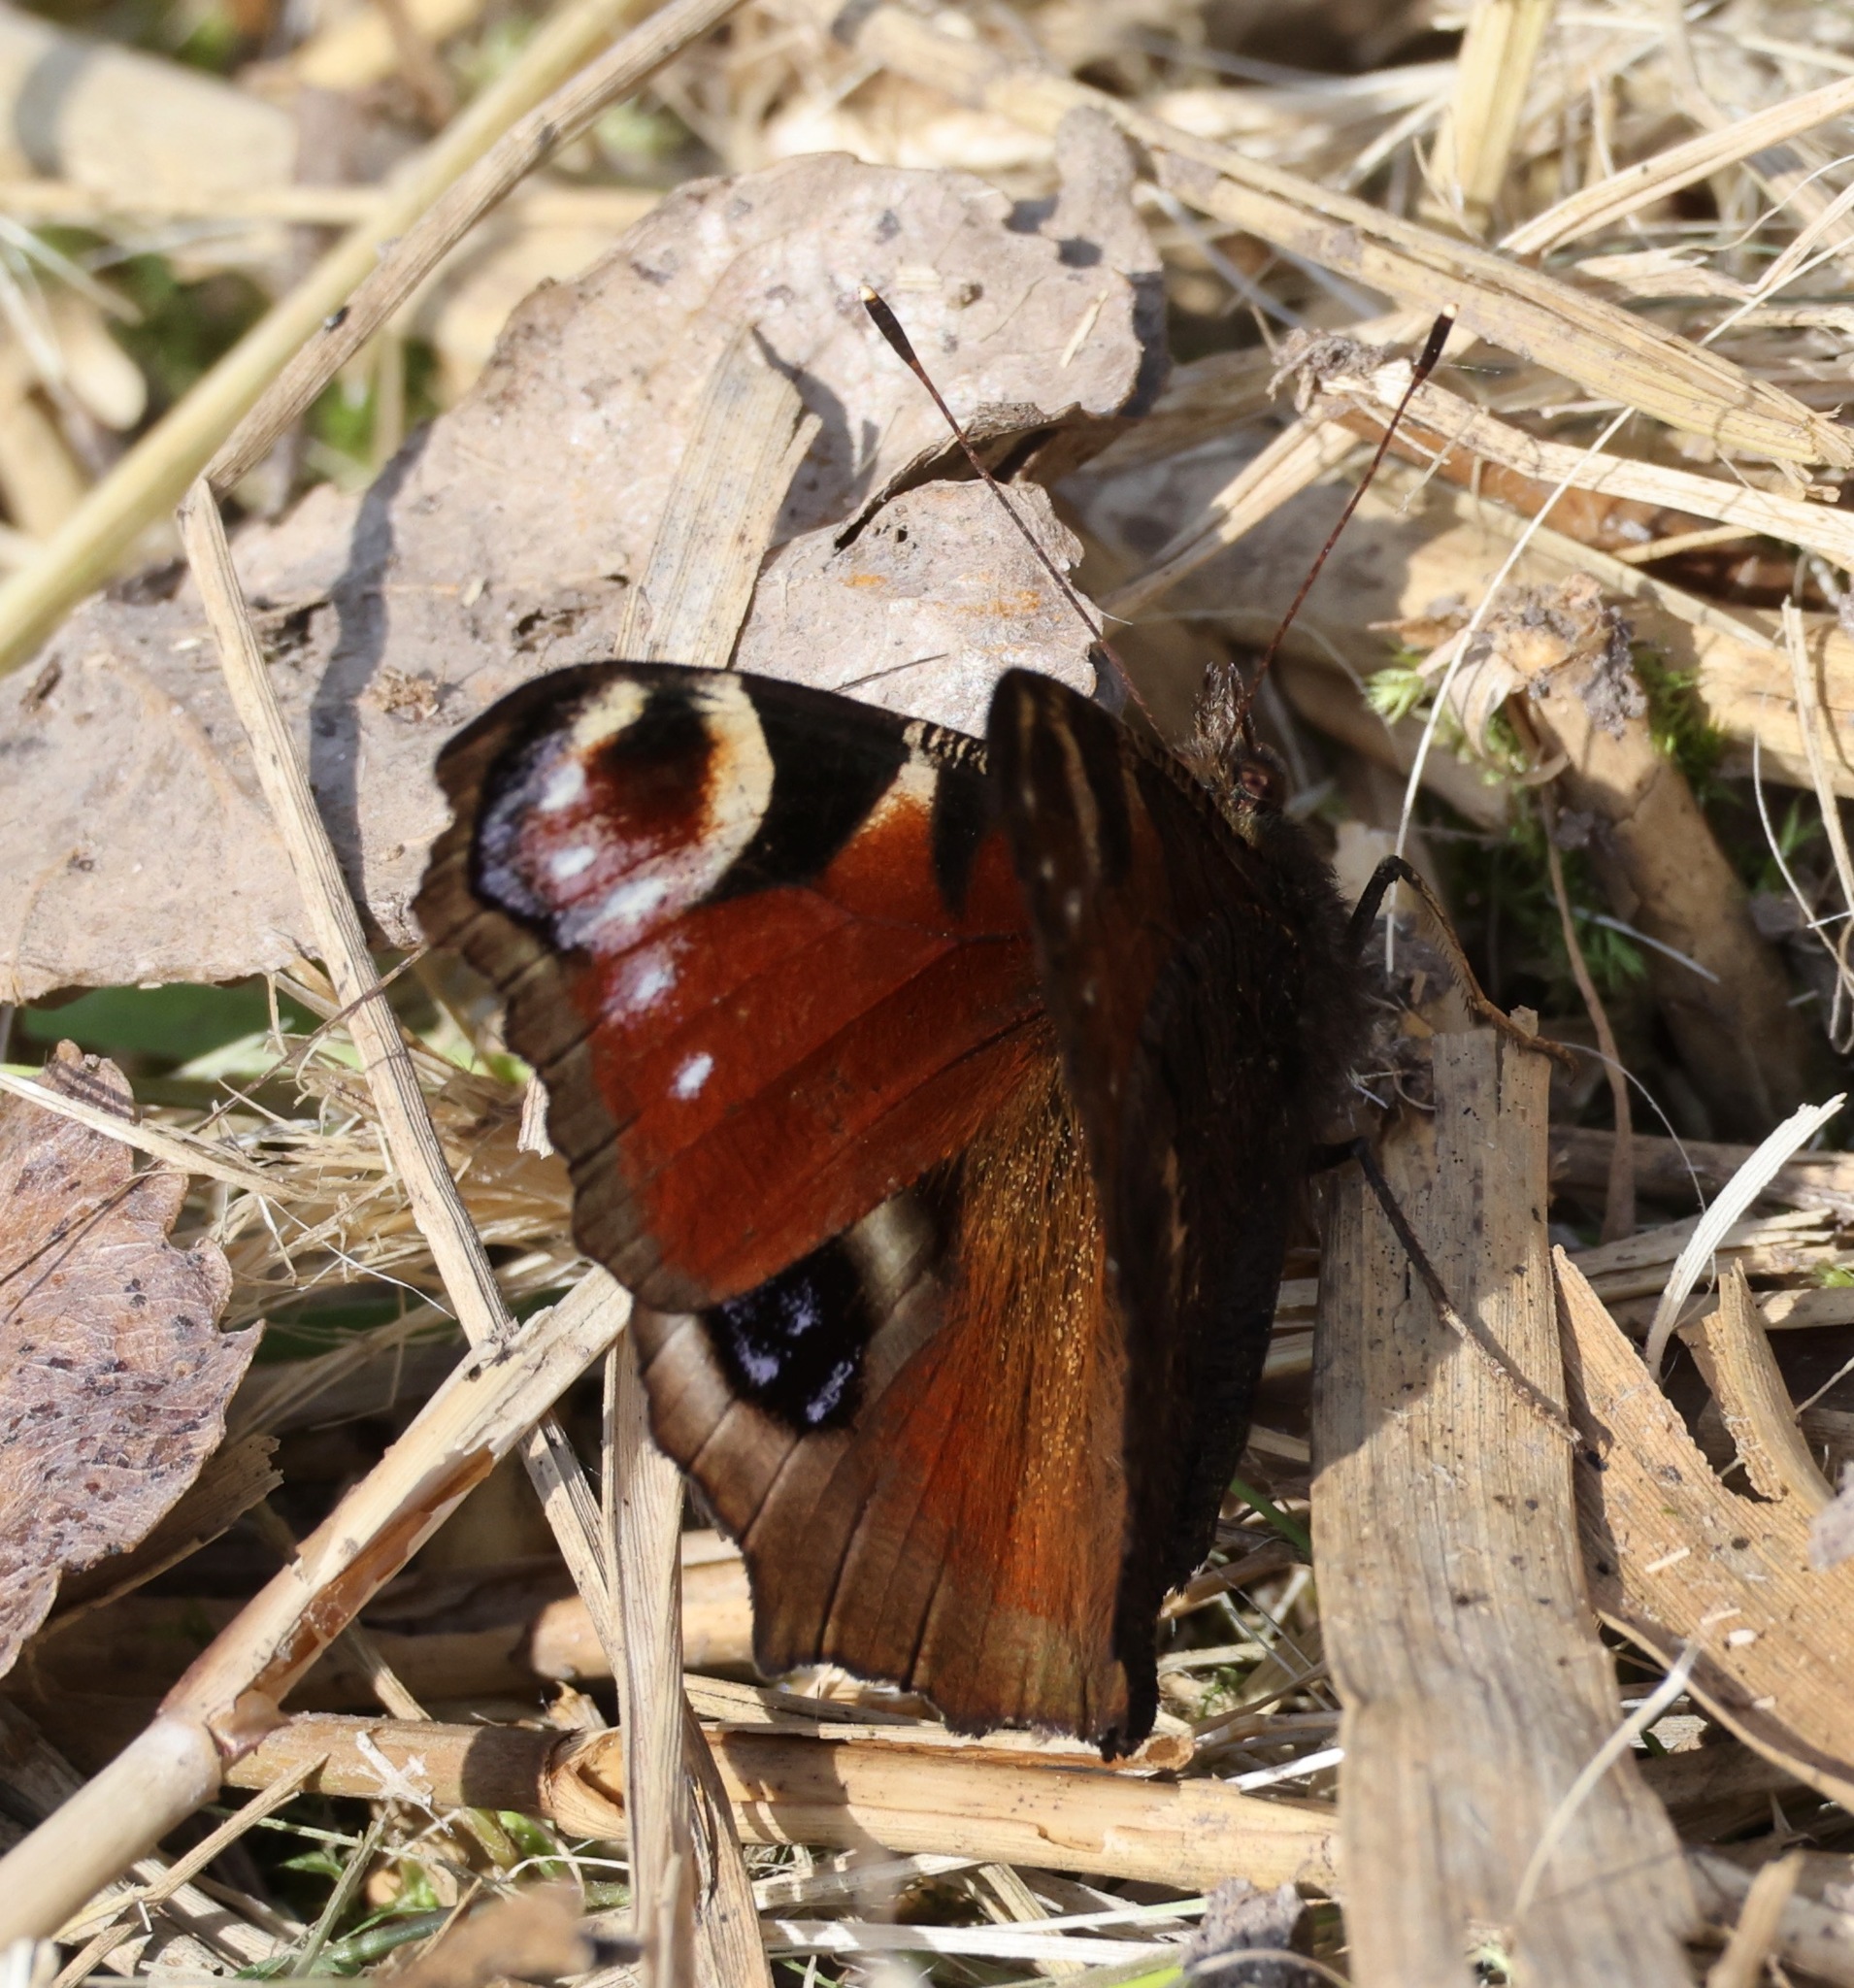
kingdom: Animalia
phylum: Arthropoda
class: Insecta
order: Lepidoptera
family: Nymphalidae
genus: Aglais
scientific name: Aglais io
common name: Peacock
